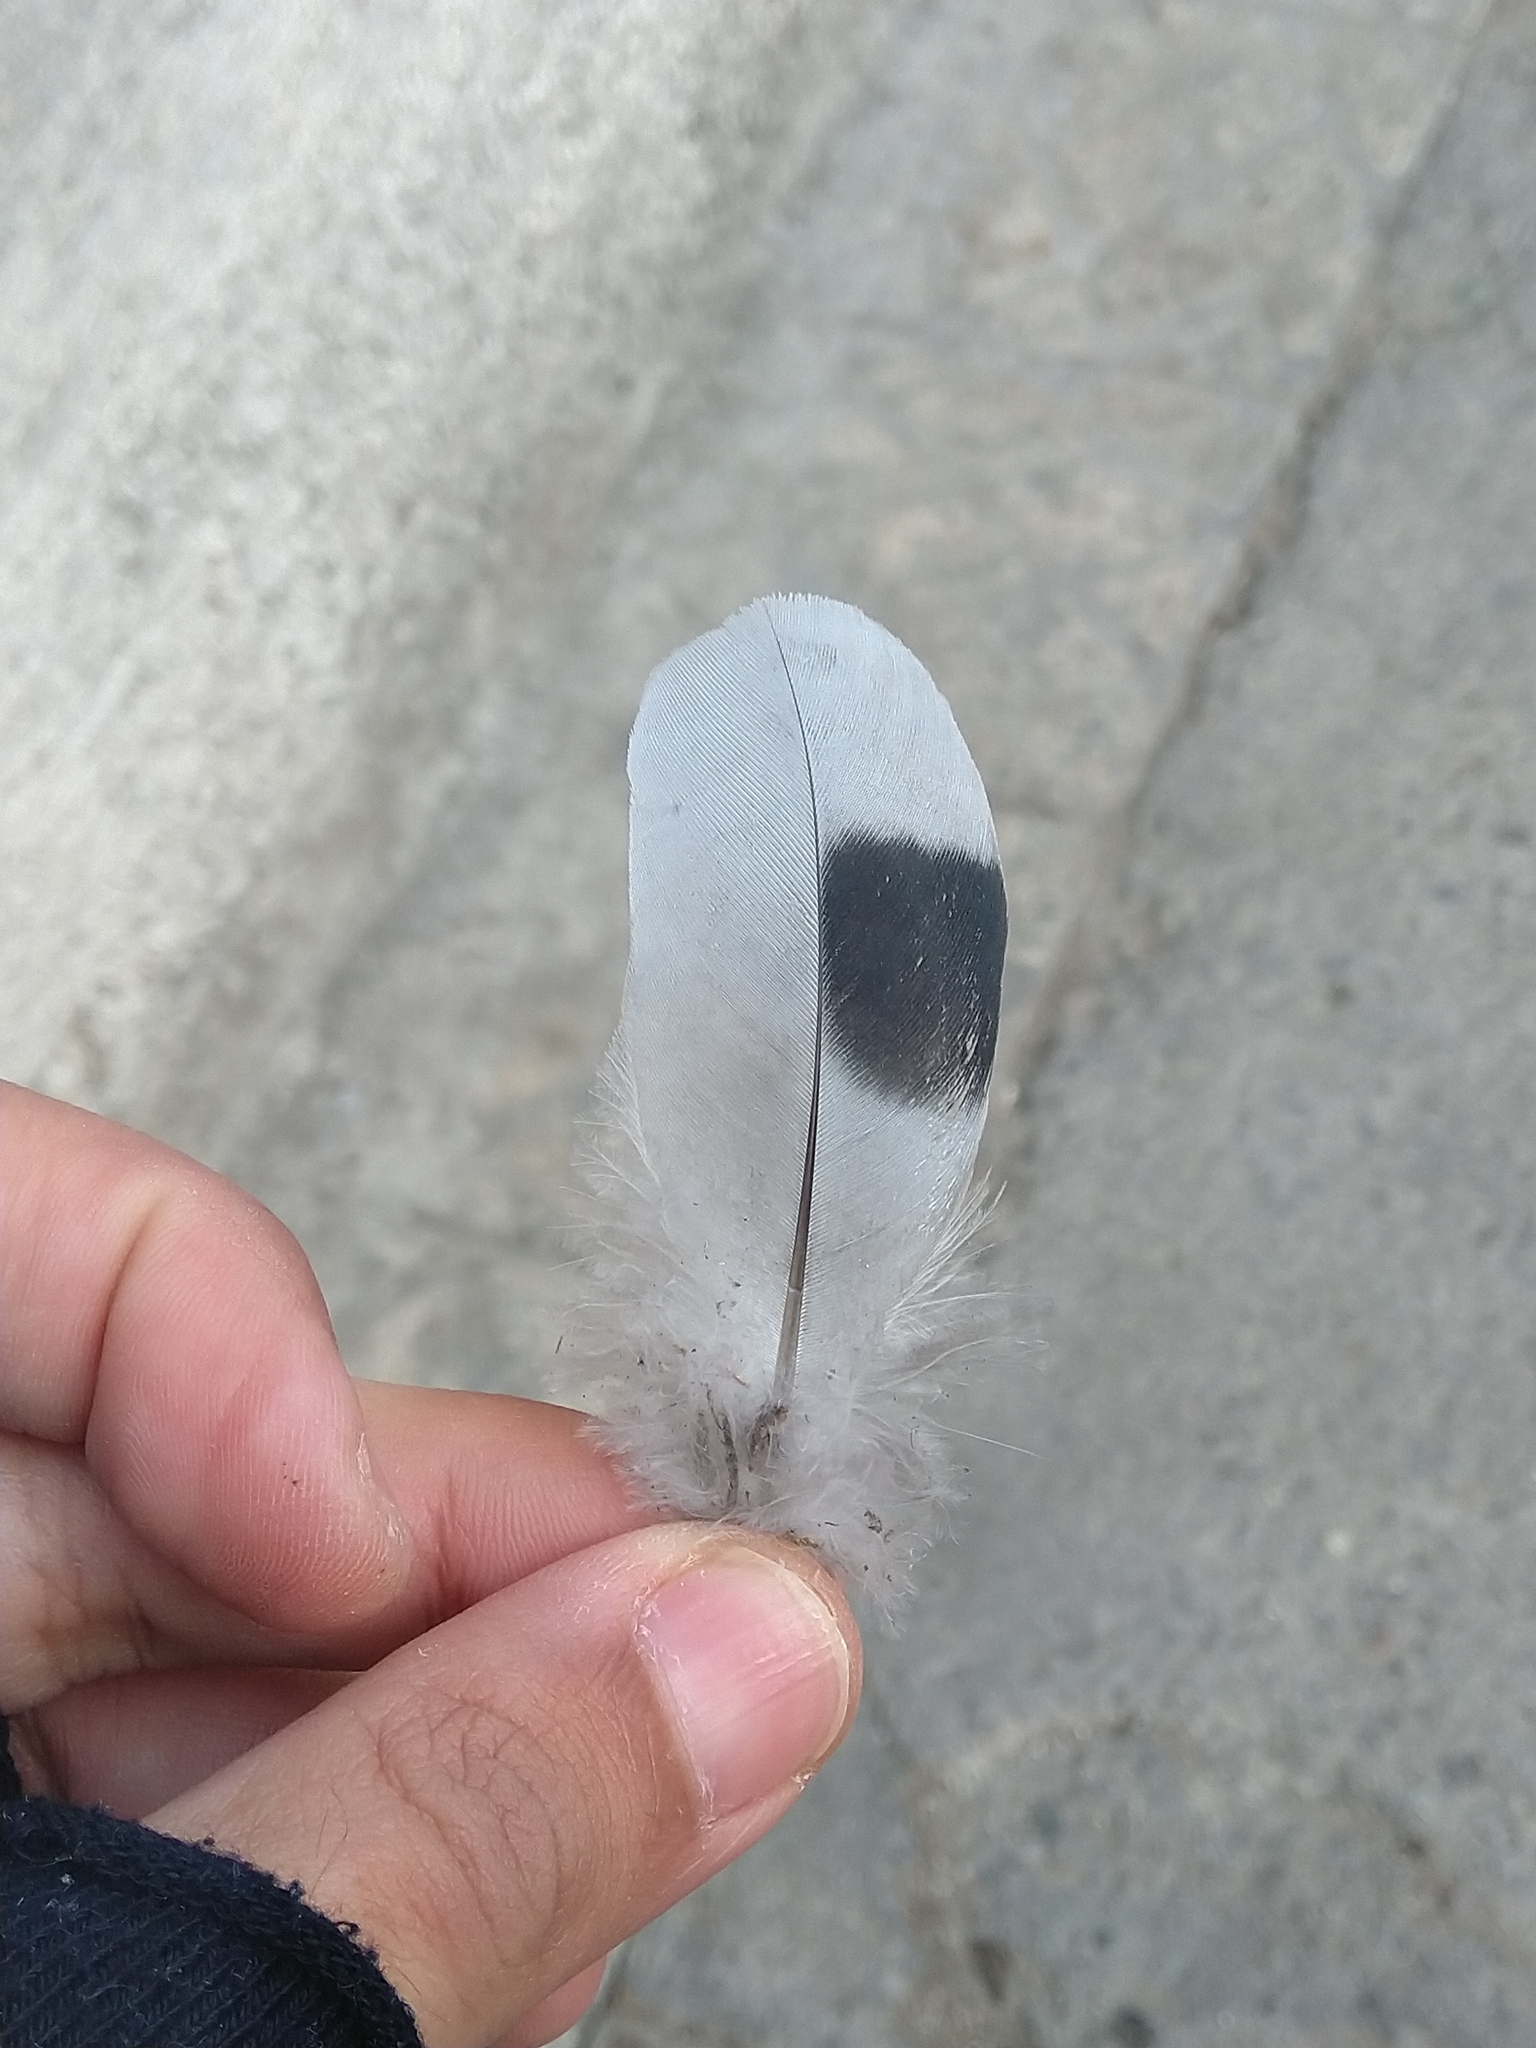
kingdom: Animalia
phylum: Chordata
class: Aves
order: Columbiformes
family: Columbidae
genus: Columba
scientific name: Columba livia
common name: Rock pigeon
